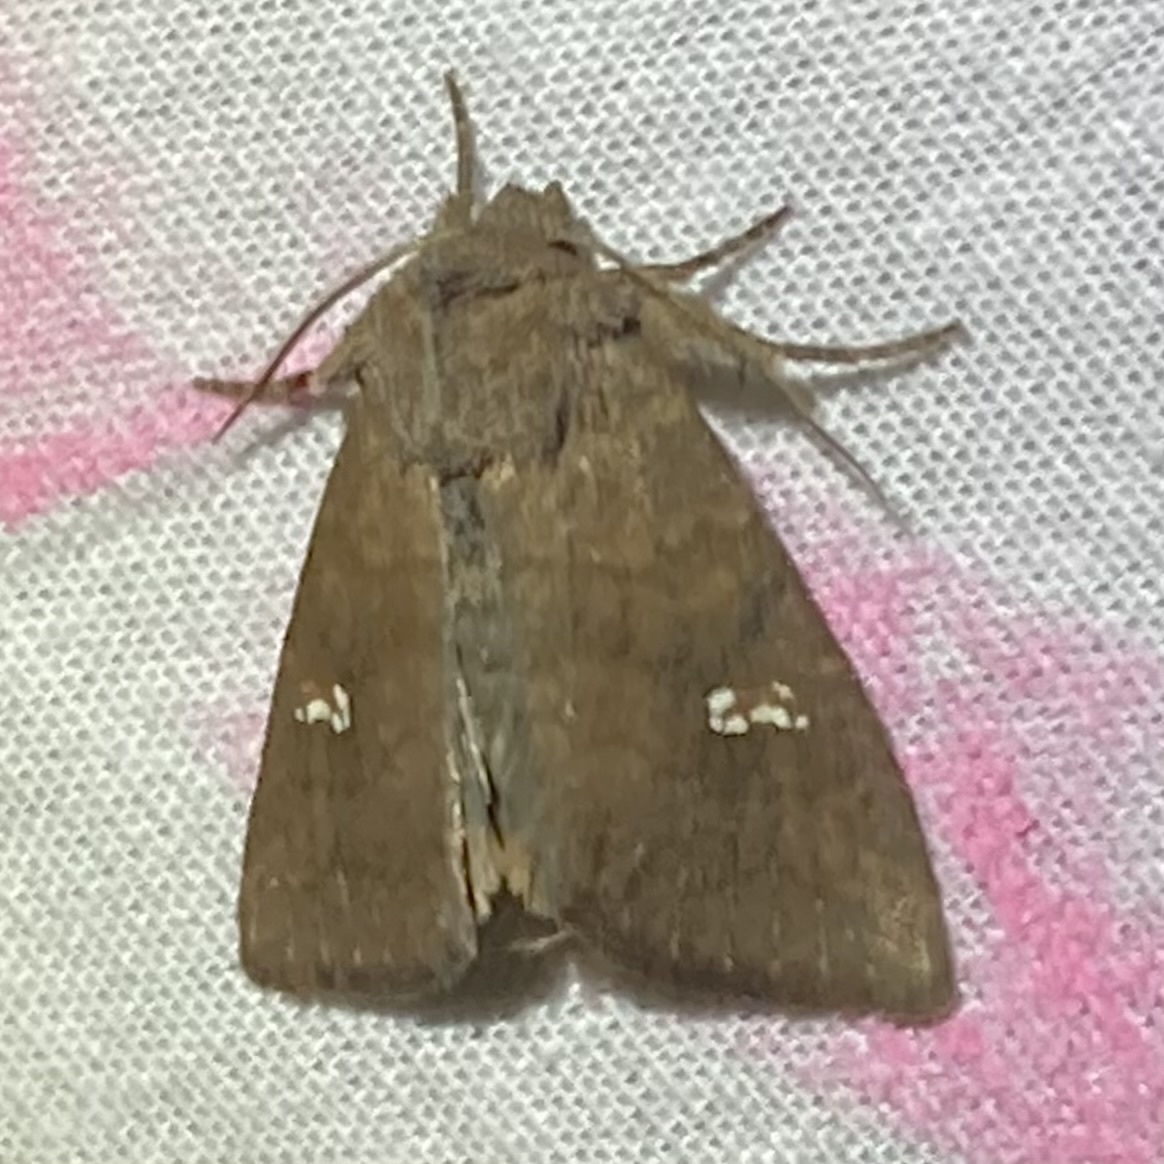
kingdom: Animalia
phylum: Arthropoda
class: Insecta
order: Lepidoptera
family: Noctuidae
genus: Tricholita
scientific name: Tricholita signata
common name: Signate quaker
